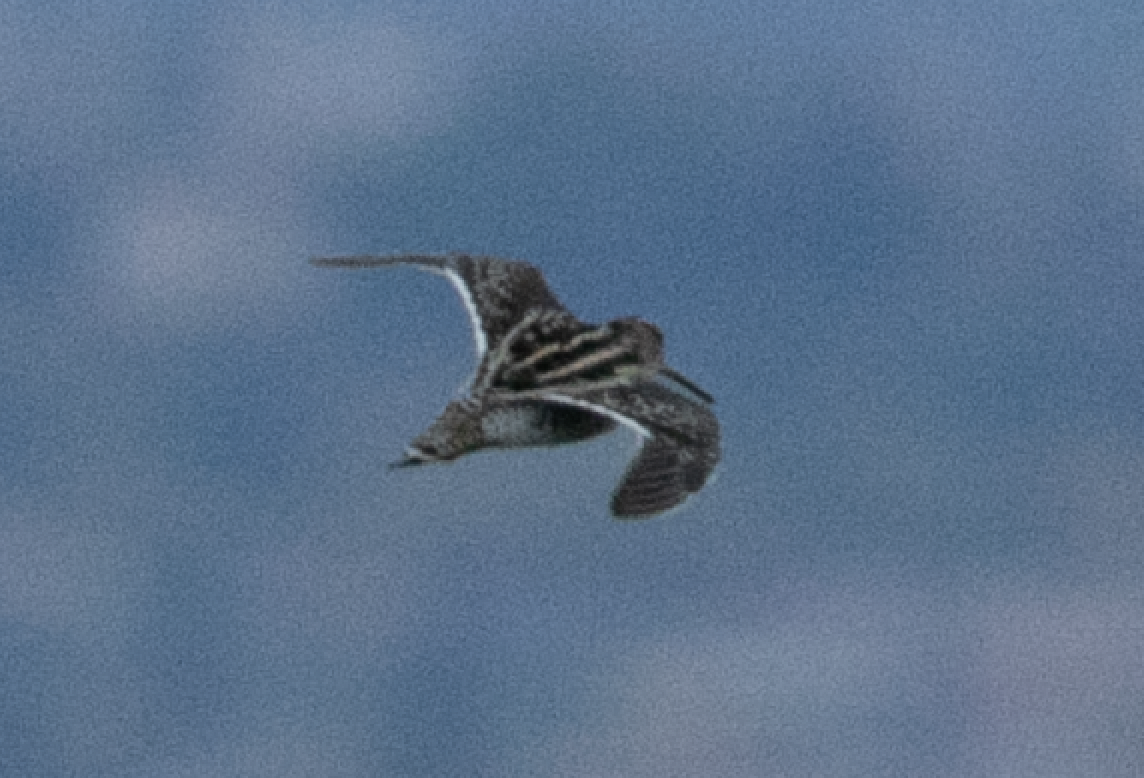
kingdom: Animalia
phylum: Chordata
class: Aves
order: Charadriiformes
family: Scolopacidae
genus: Gallinago
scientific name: Gallinago gallinago
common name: Common snipe
